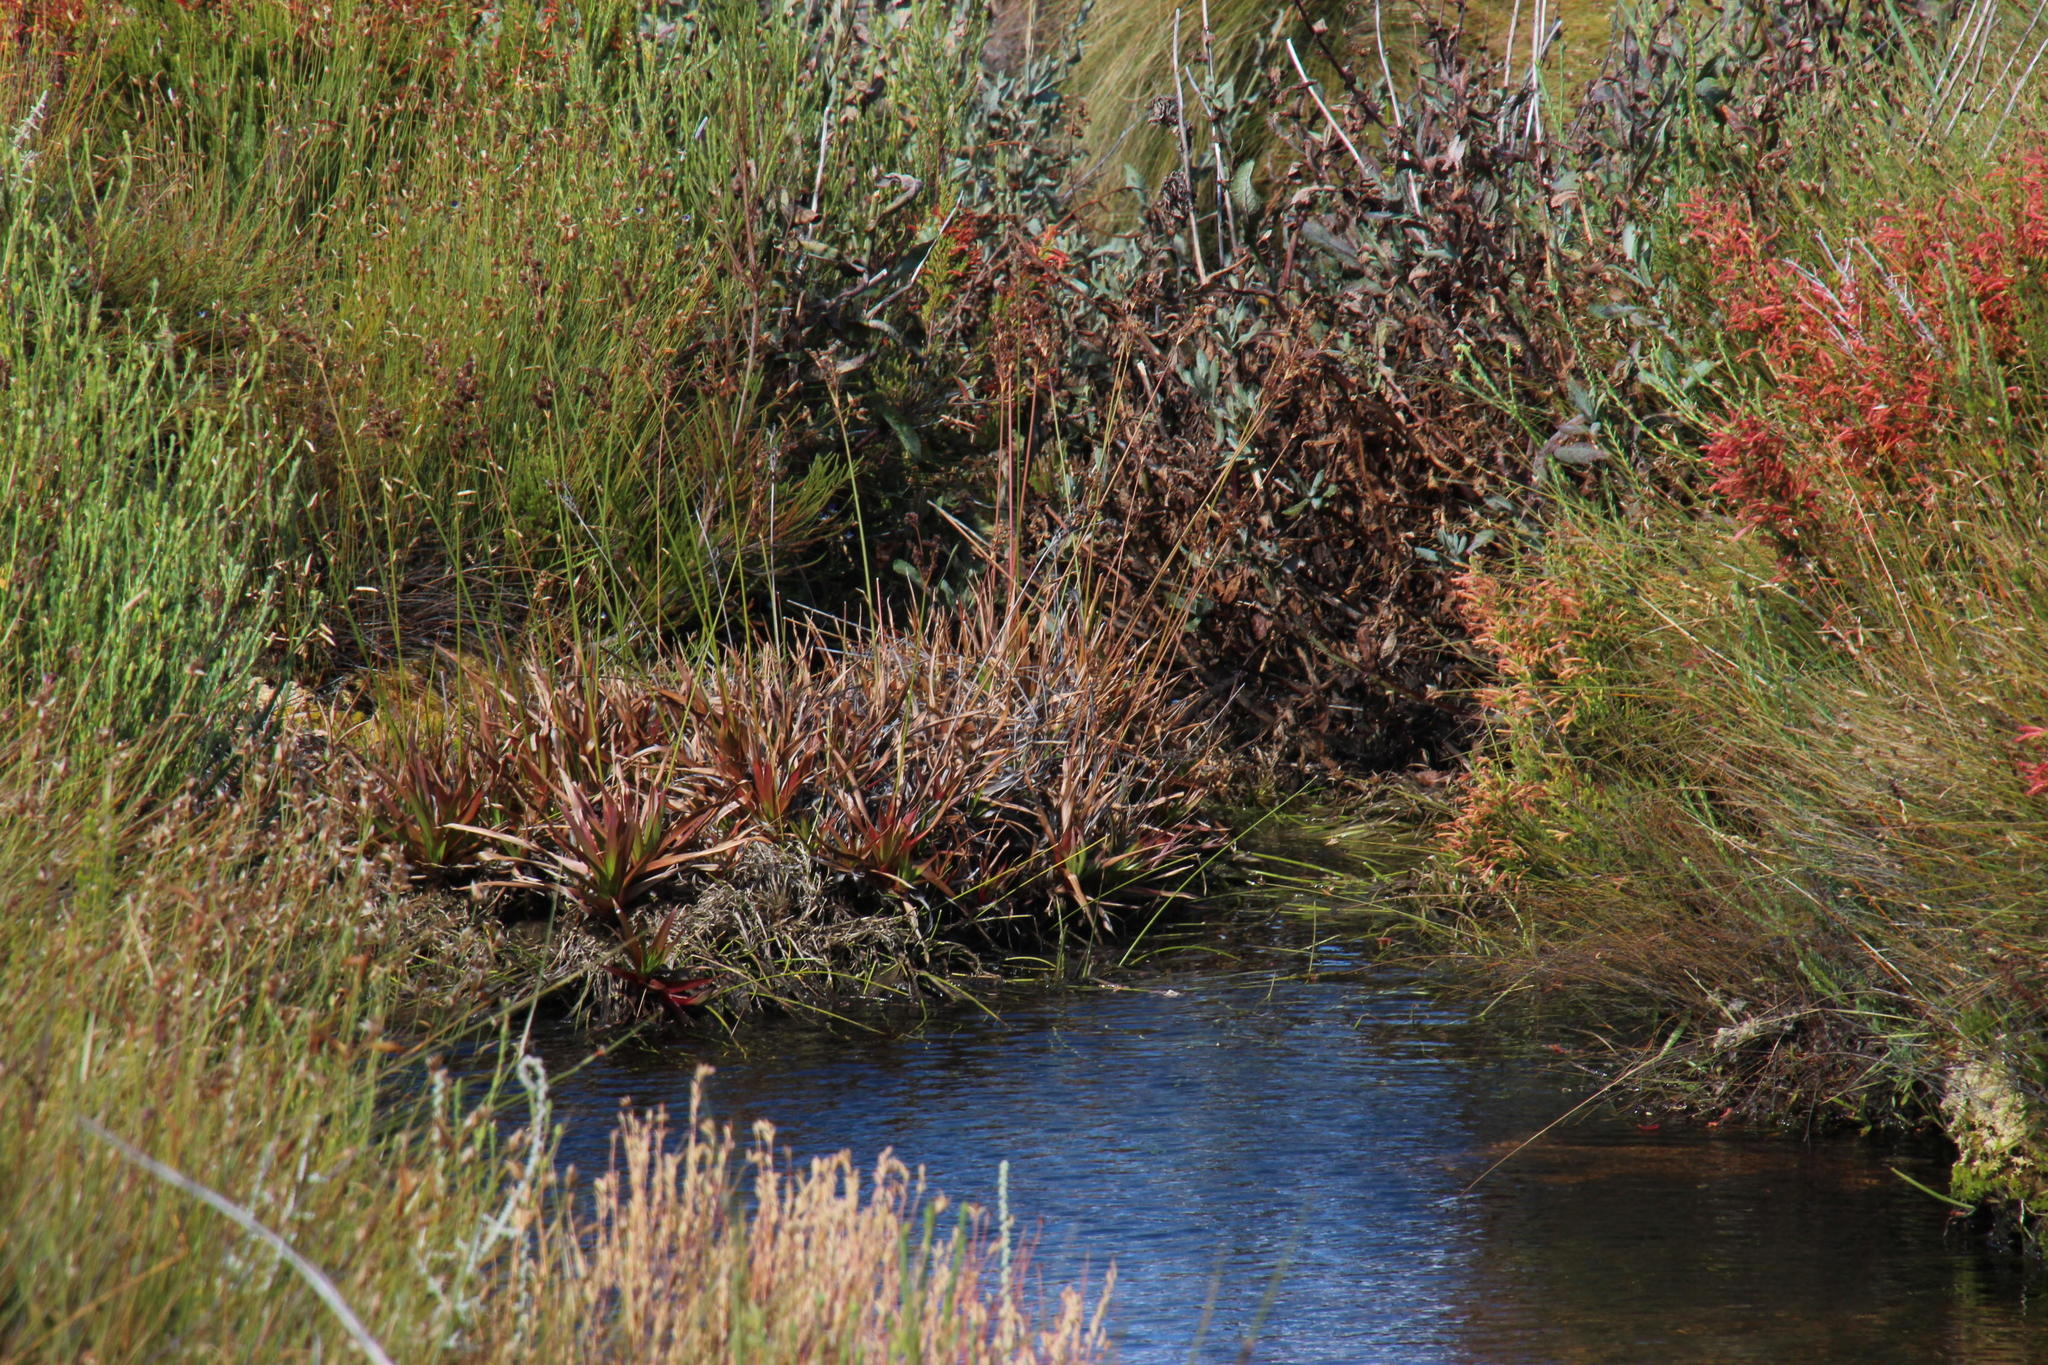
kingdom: Plantae
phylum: Tracheophyta
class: Liliopsida
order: Poales
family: Juncaceae
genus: Juncus
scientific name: Juncus lomatophyllus
